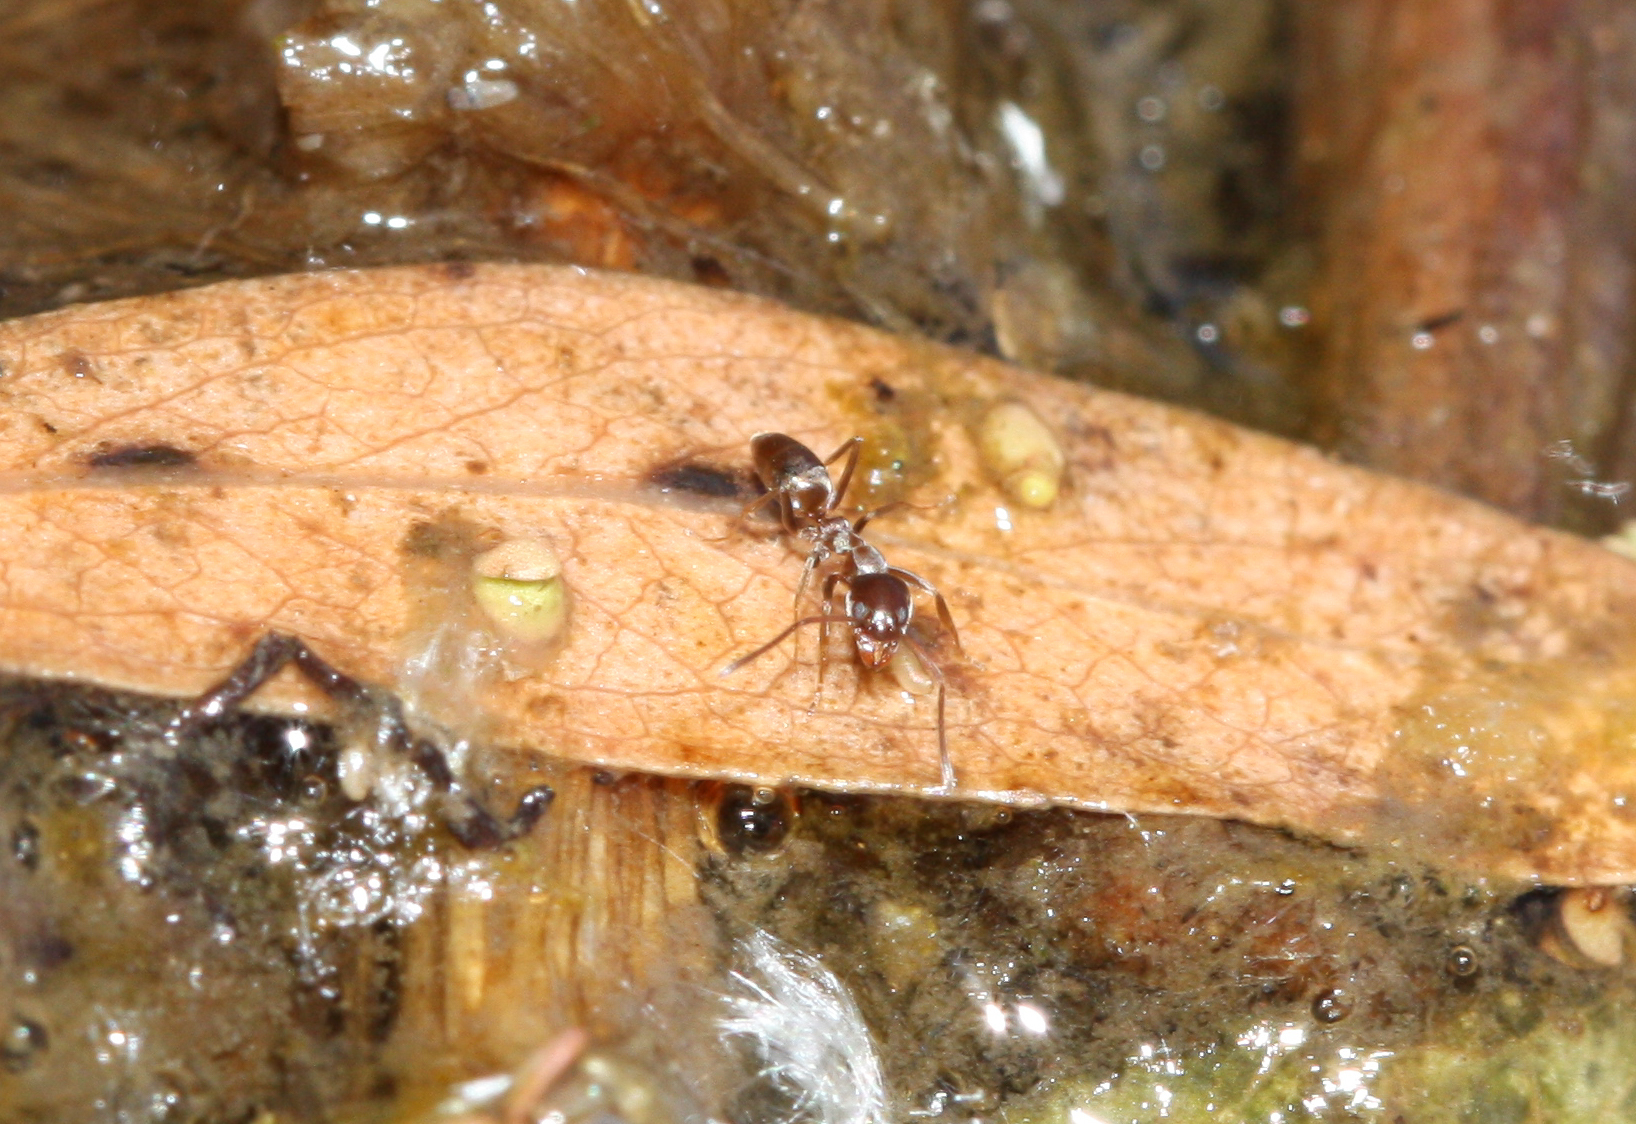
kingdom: Animalia
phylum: Arthropoda
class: Insecta
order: Hymenoptera
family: Formicidae
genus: Linepithema
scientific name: Linepithema humile
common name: Argentine ant
